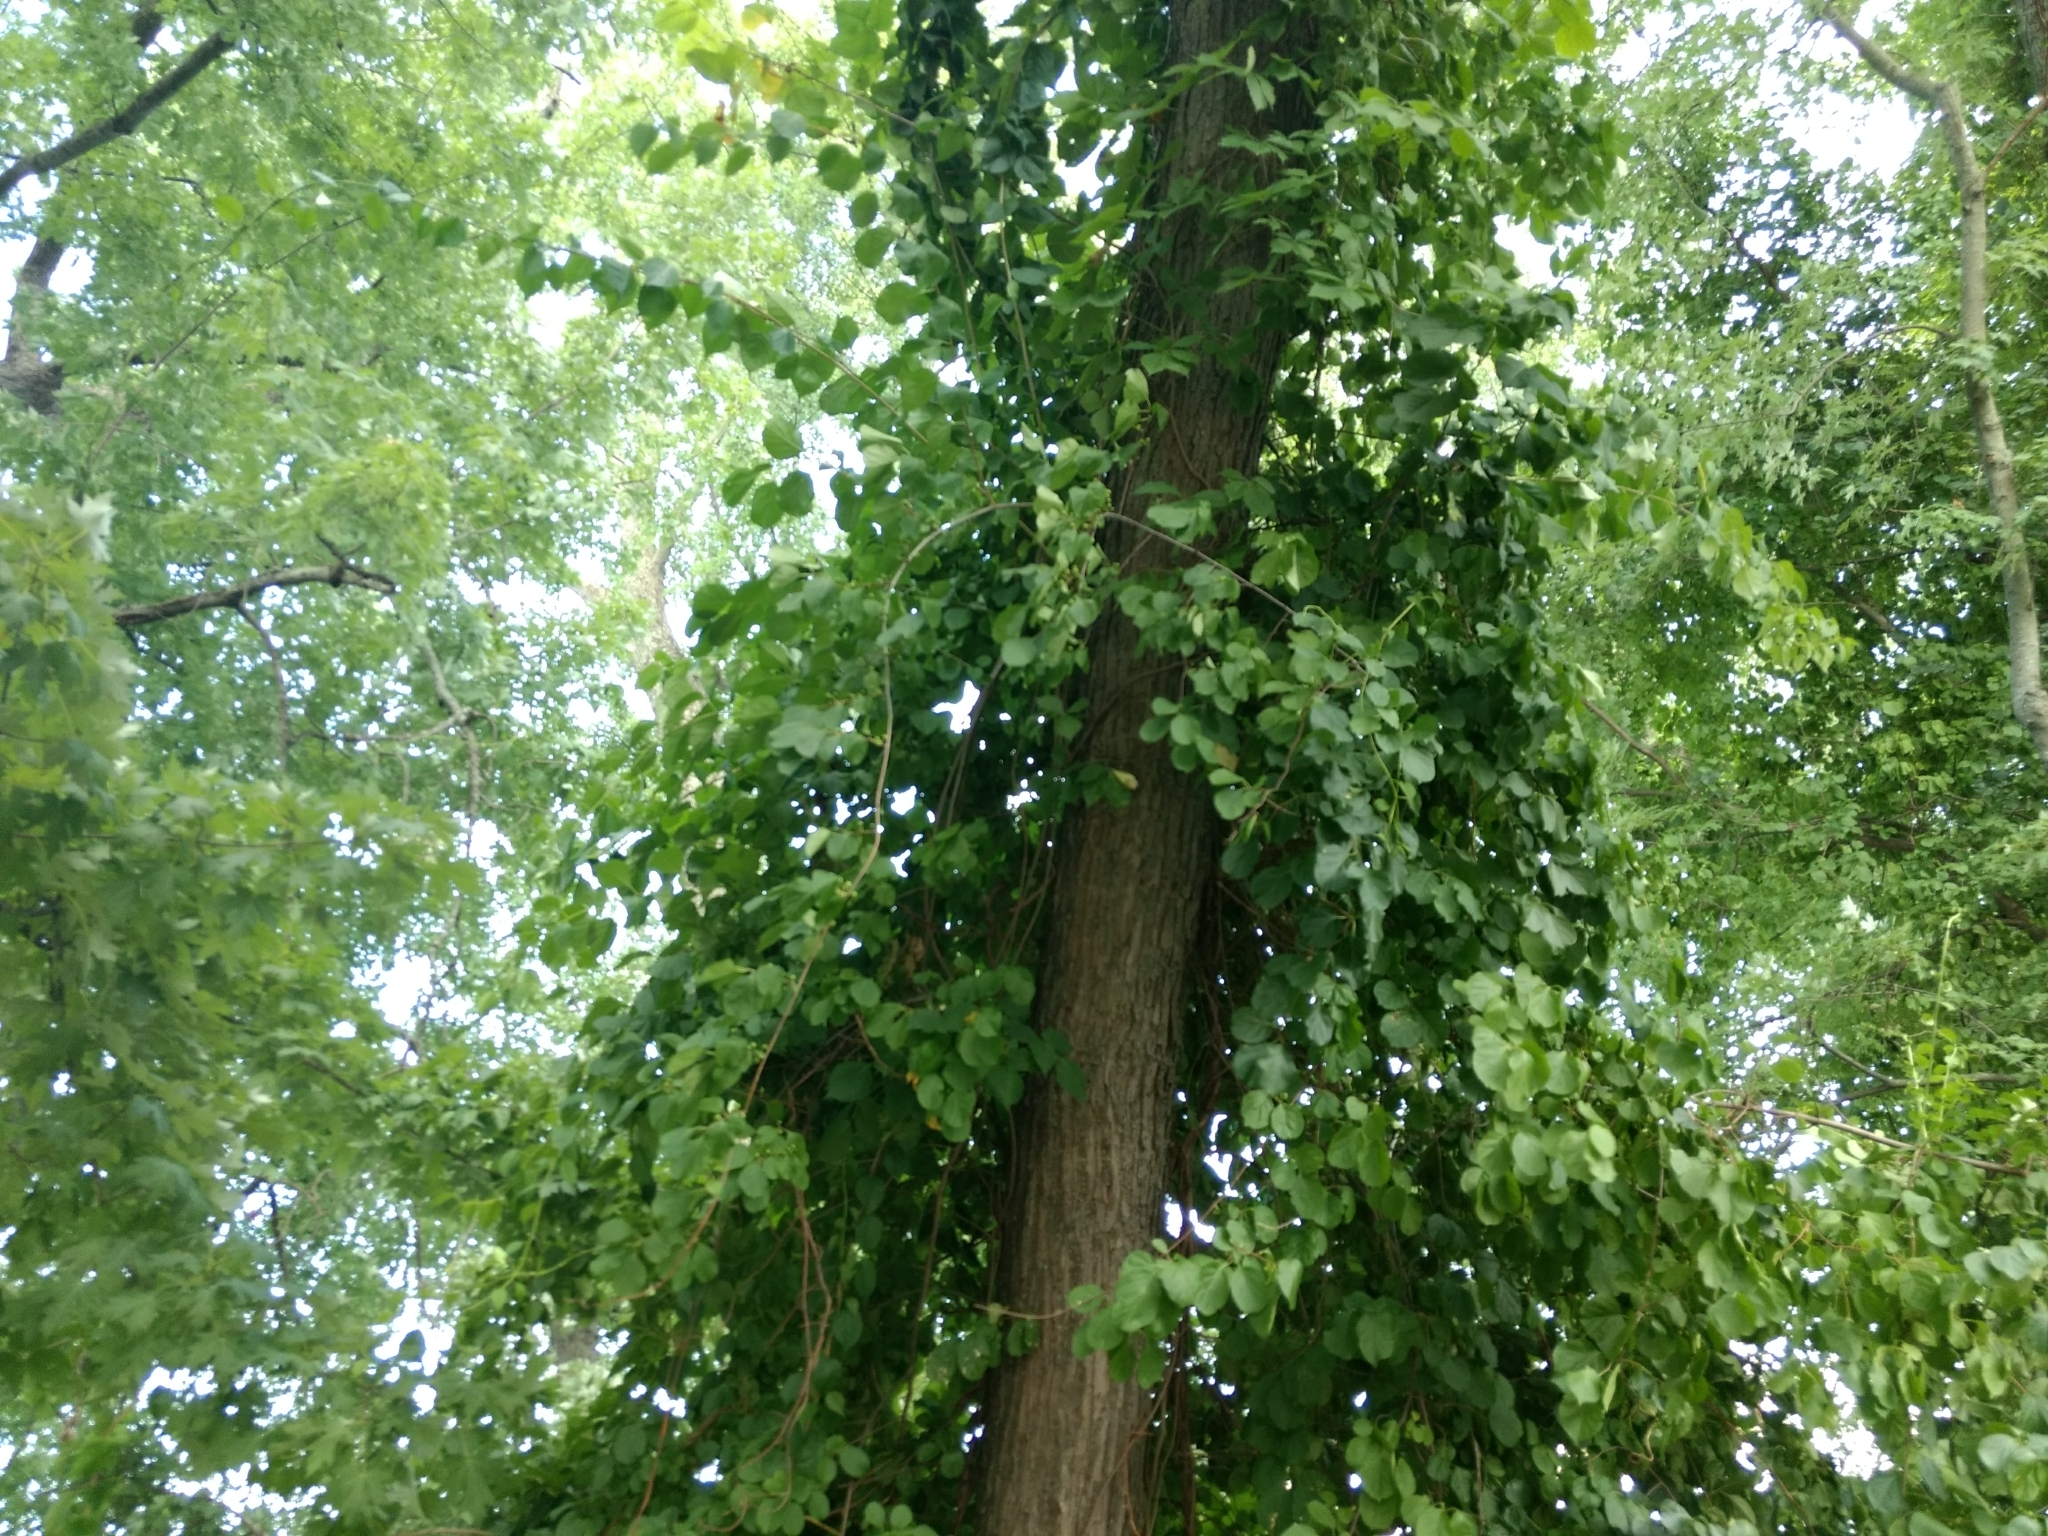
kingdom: Plantae
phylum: Tracheophyta
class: Magnoliopsida
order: Celastrales
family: Celastraceae
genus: Celastrus
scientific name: Celastrus orbiculatus
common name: Oriental bittersweet
